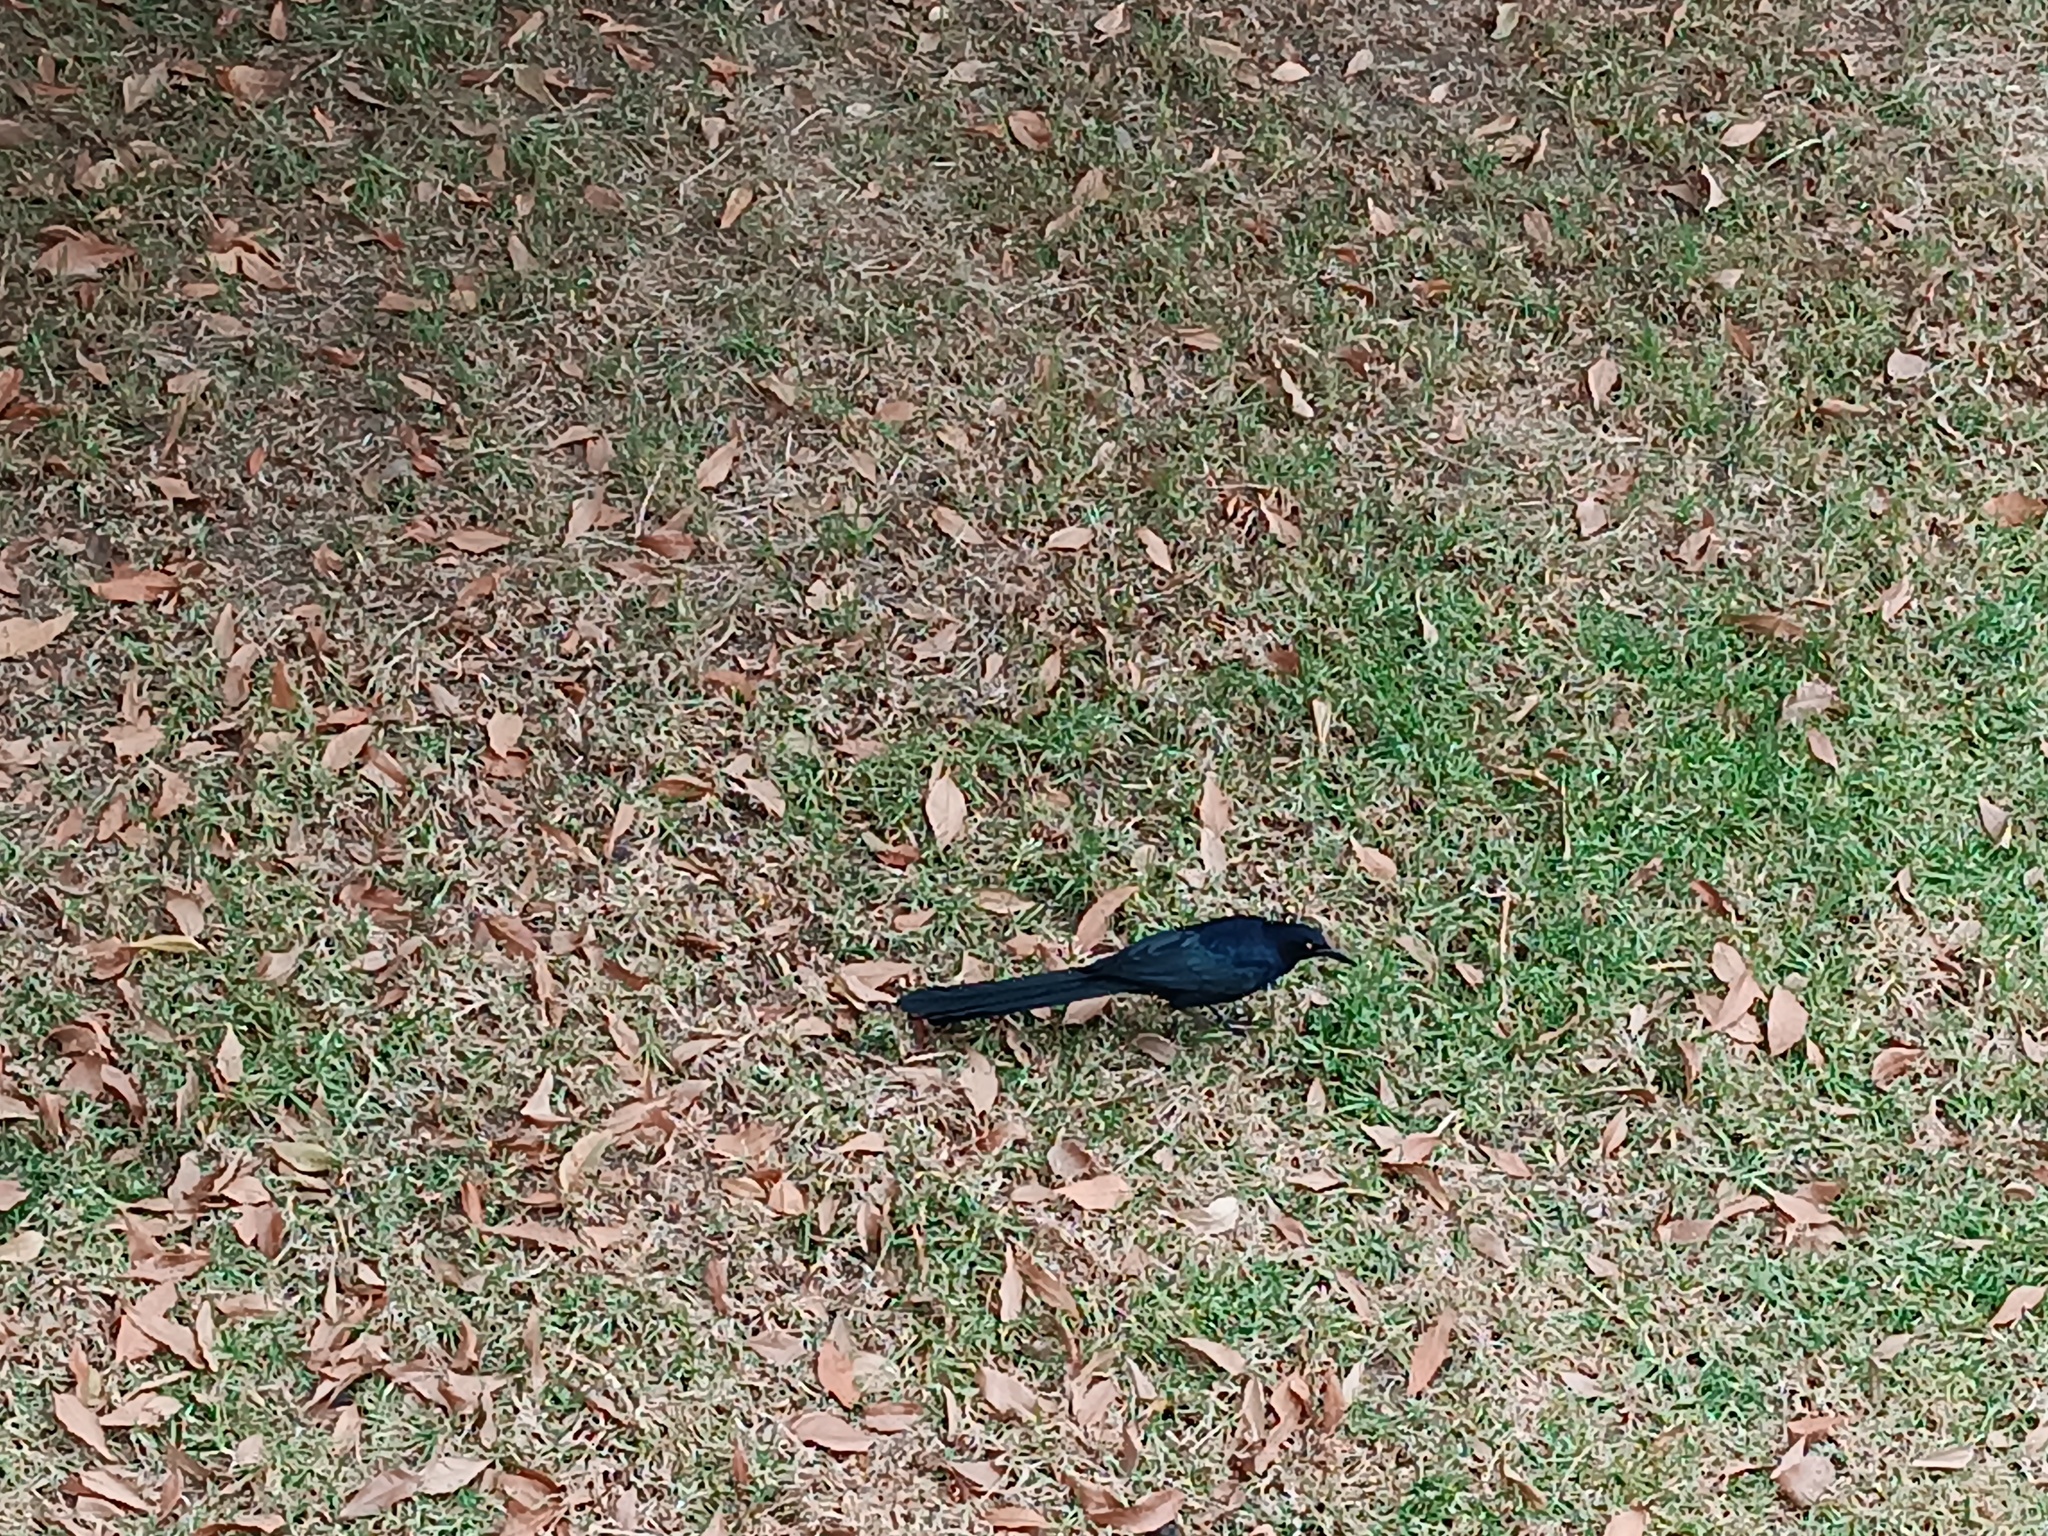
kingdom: Animalia
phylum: Chordata
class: Aves
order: Passeriformes
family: Icteridae
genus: Quiscalus
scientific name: Quiscalus mexicanus
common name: Great-tailed grackle
